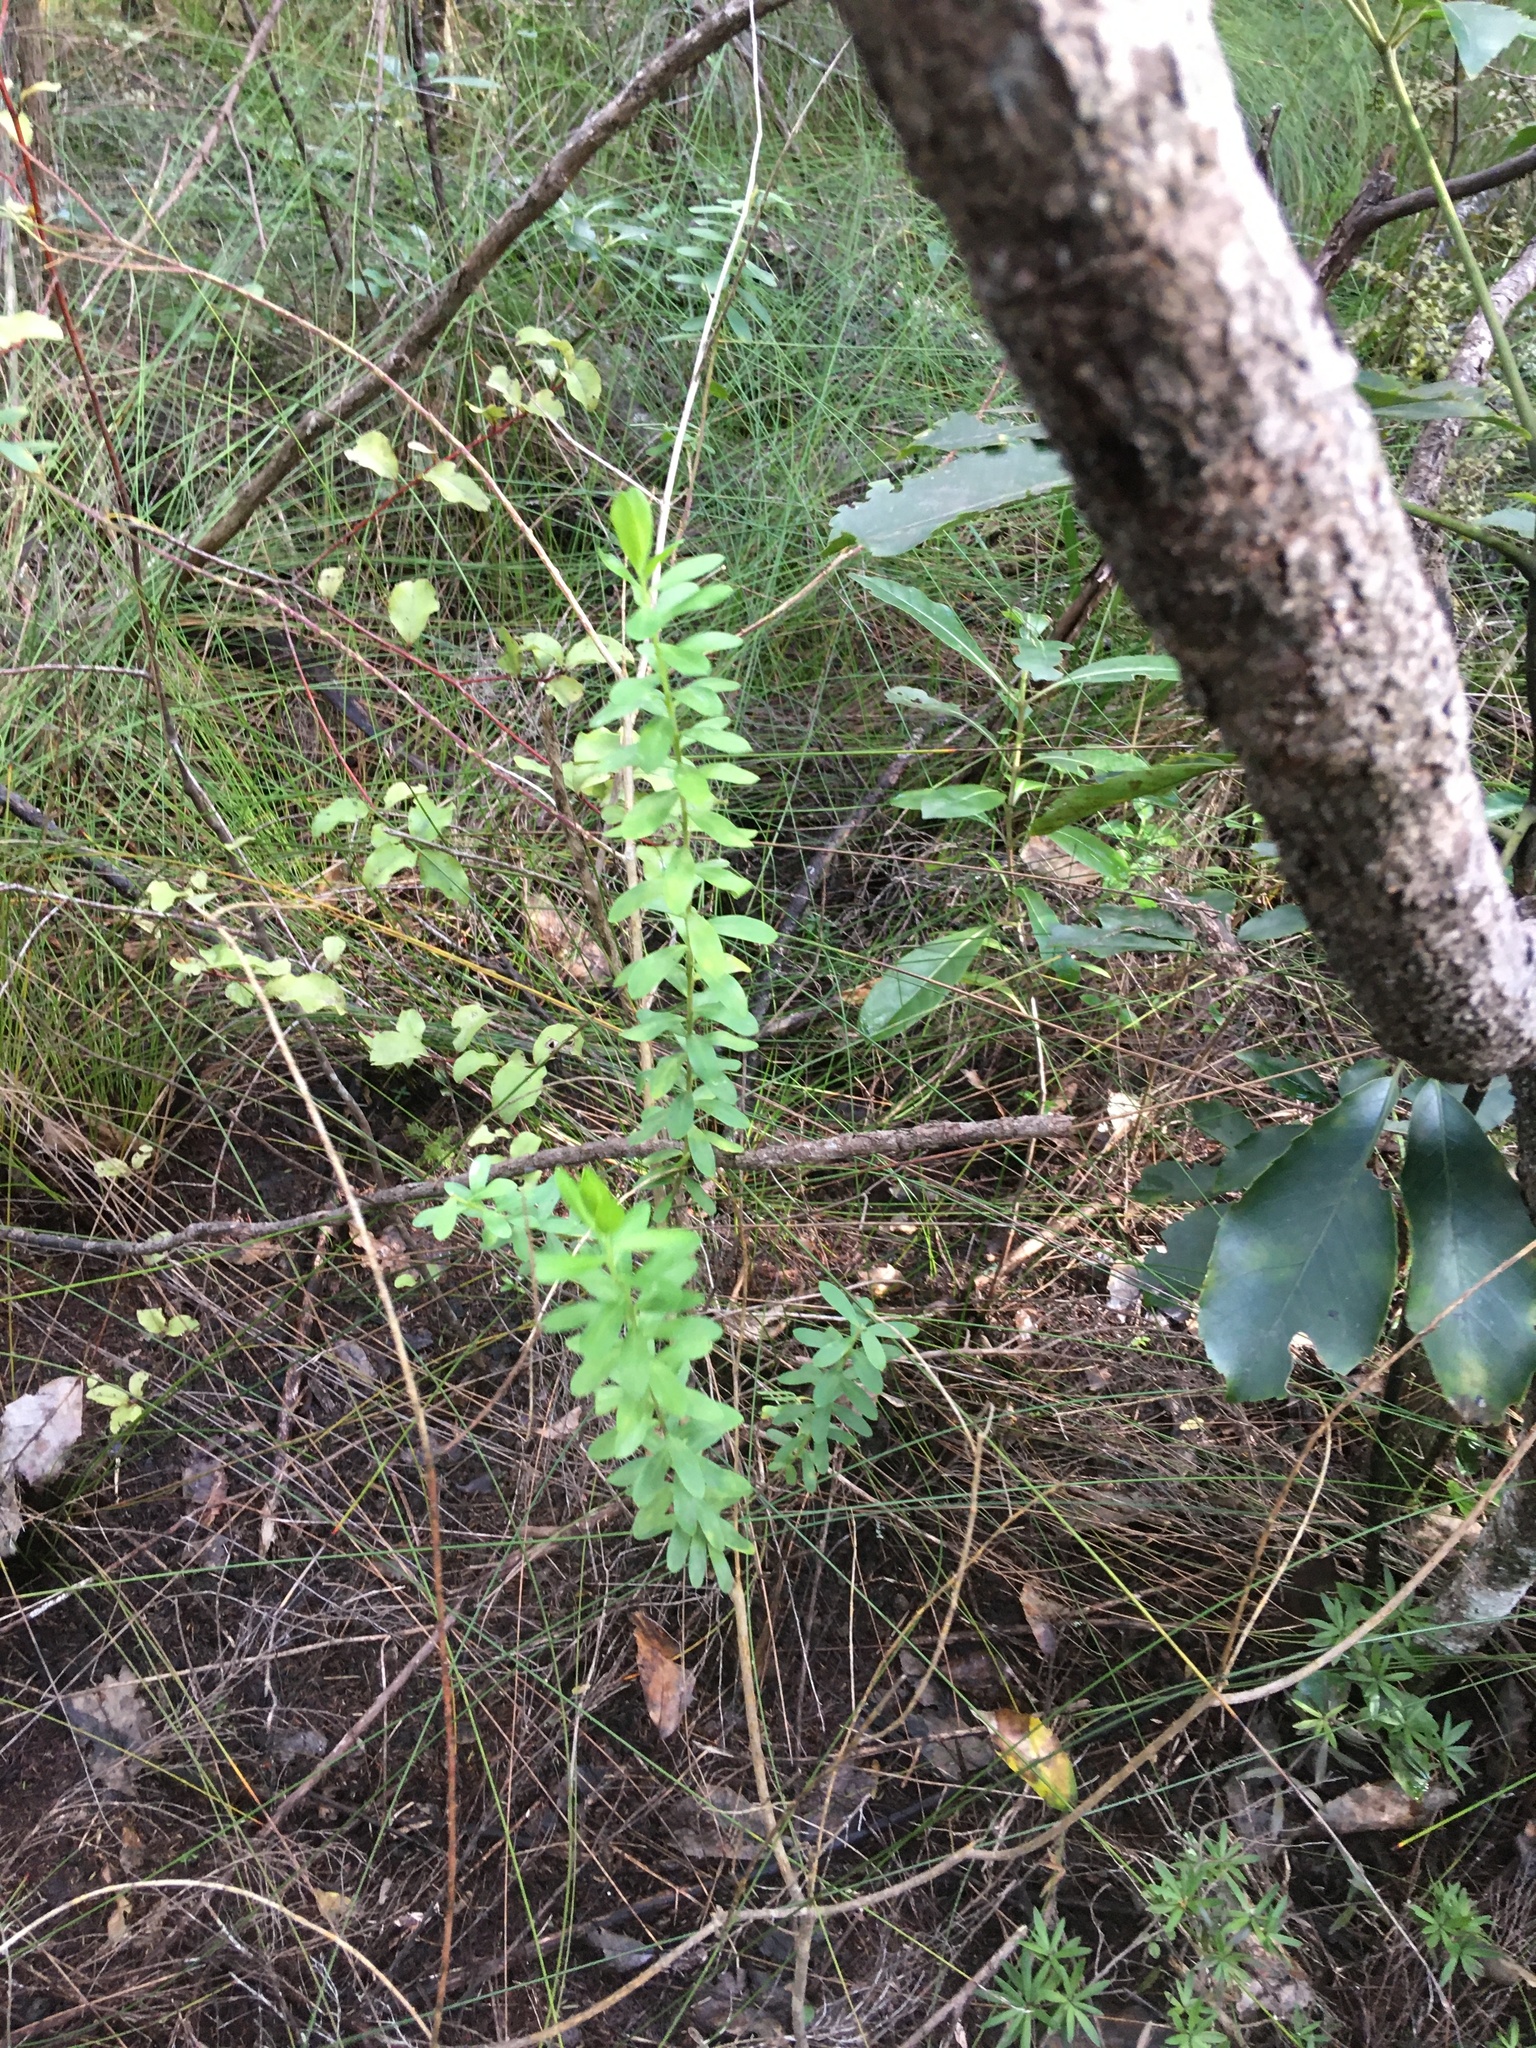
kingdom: Plantae
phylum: Tracheophyta
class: Magnoliopsida
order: Fabales
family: Polygalaceae
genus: Polygala
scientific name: Polygala myrtifolia
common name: Myrtle-leaf milkwort
